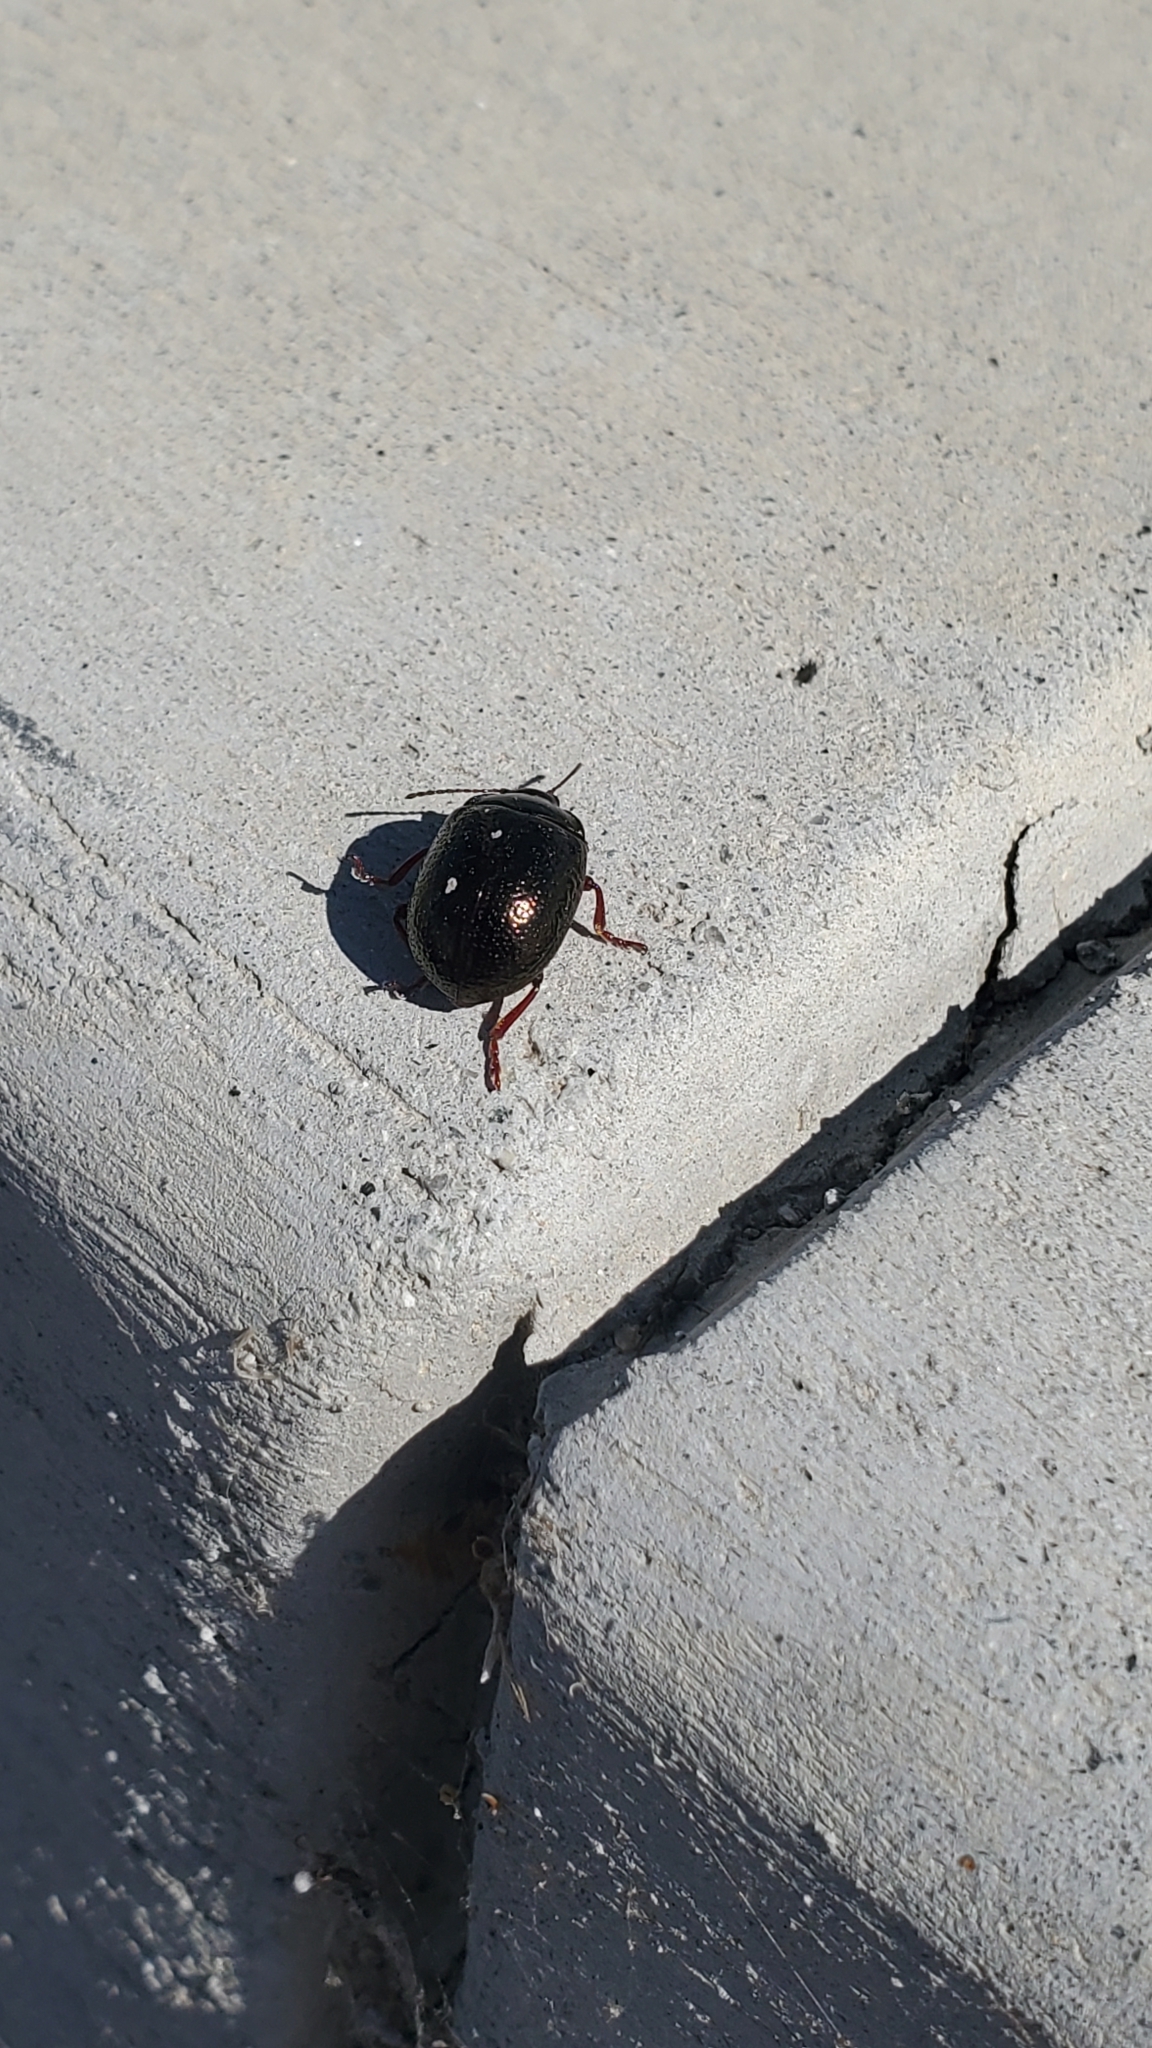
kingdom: Animalia
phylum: Arthropoda
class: Insecta
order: Coleoptera
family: Chrysomelidae
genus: Chrysolina
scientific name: Chrysolina bankii
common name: Leaf beetle
